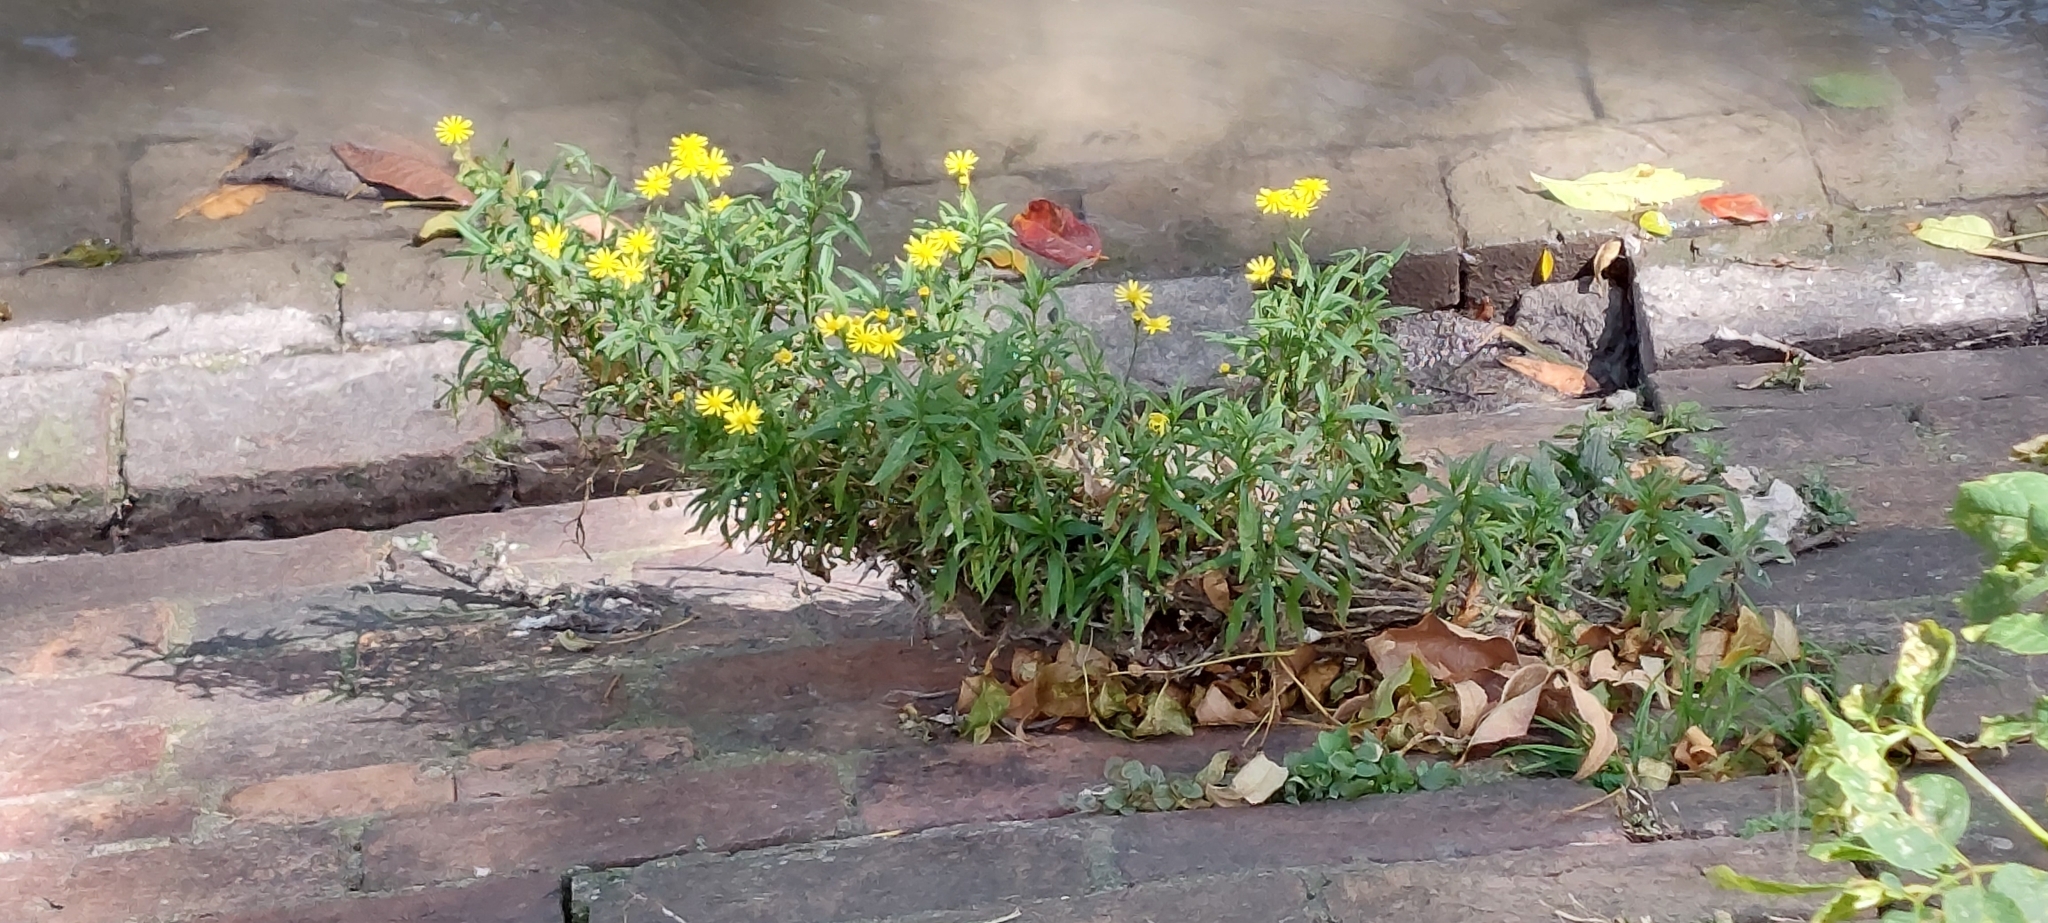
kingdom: Plantae
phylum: Tracheophyta
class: Magnoliopsida
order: Asterales
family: Asteraceae
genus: Senecio
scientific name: Senecio madagascariensis
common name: Madagascar ragwort
